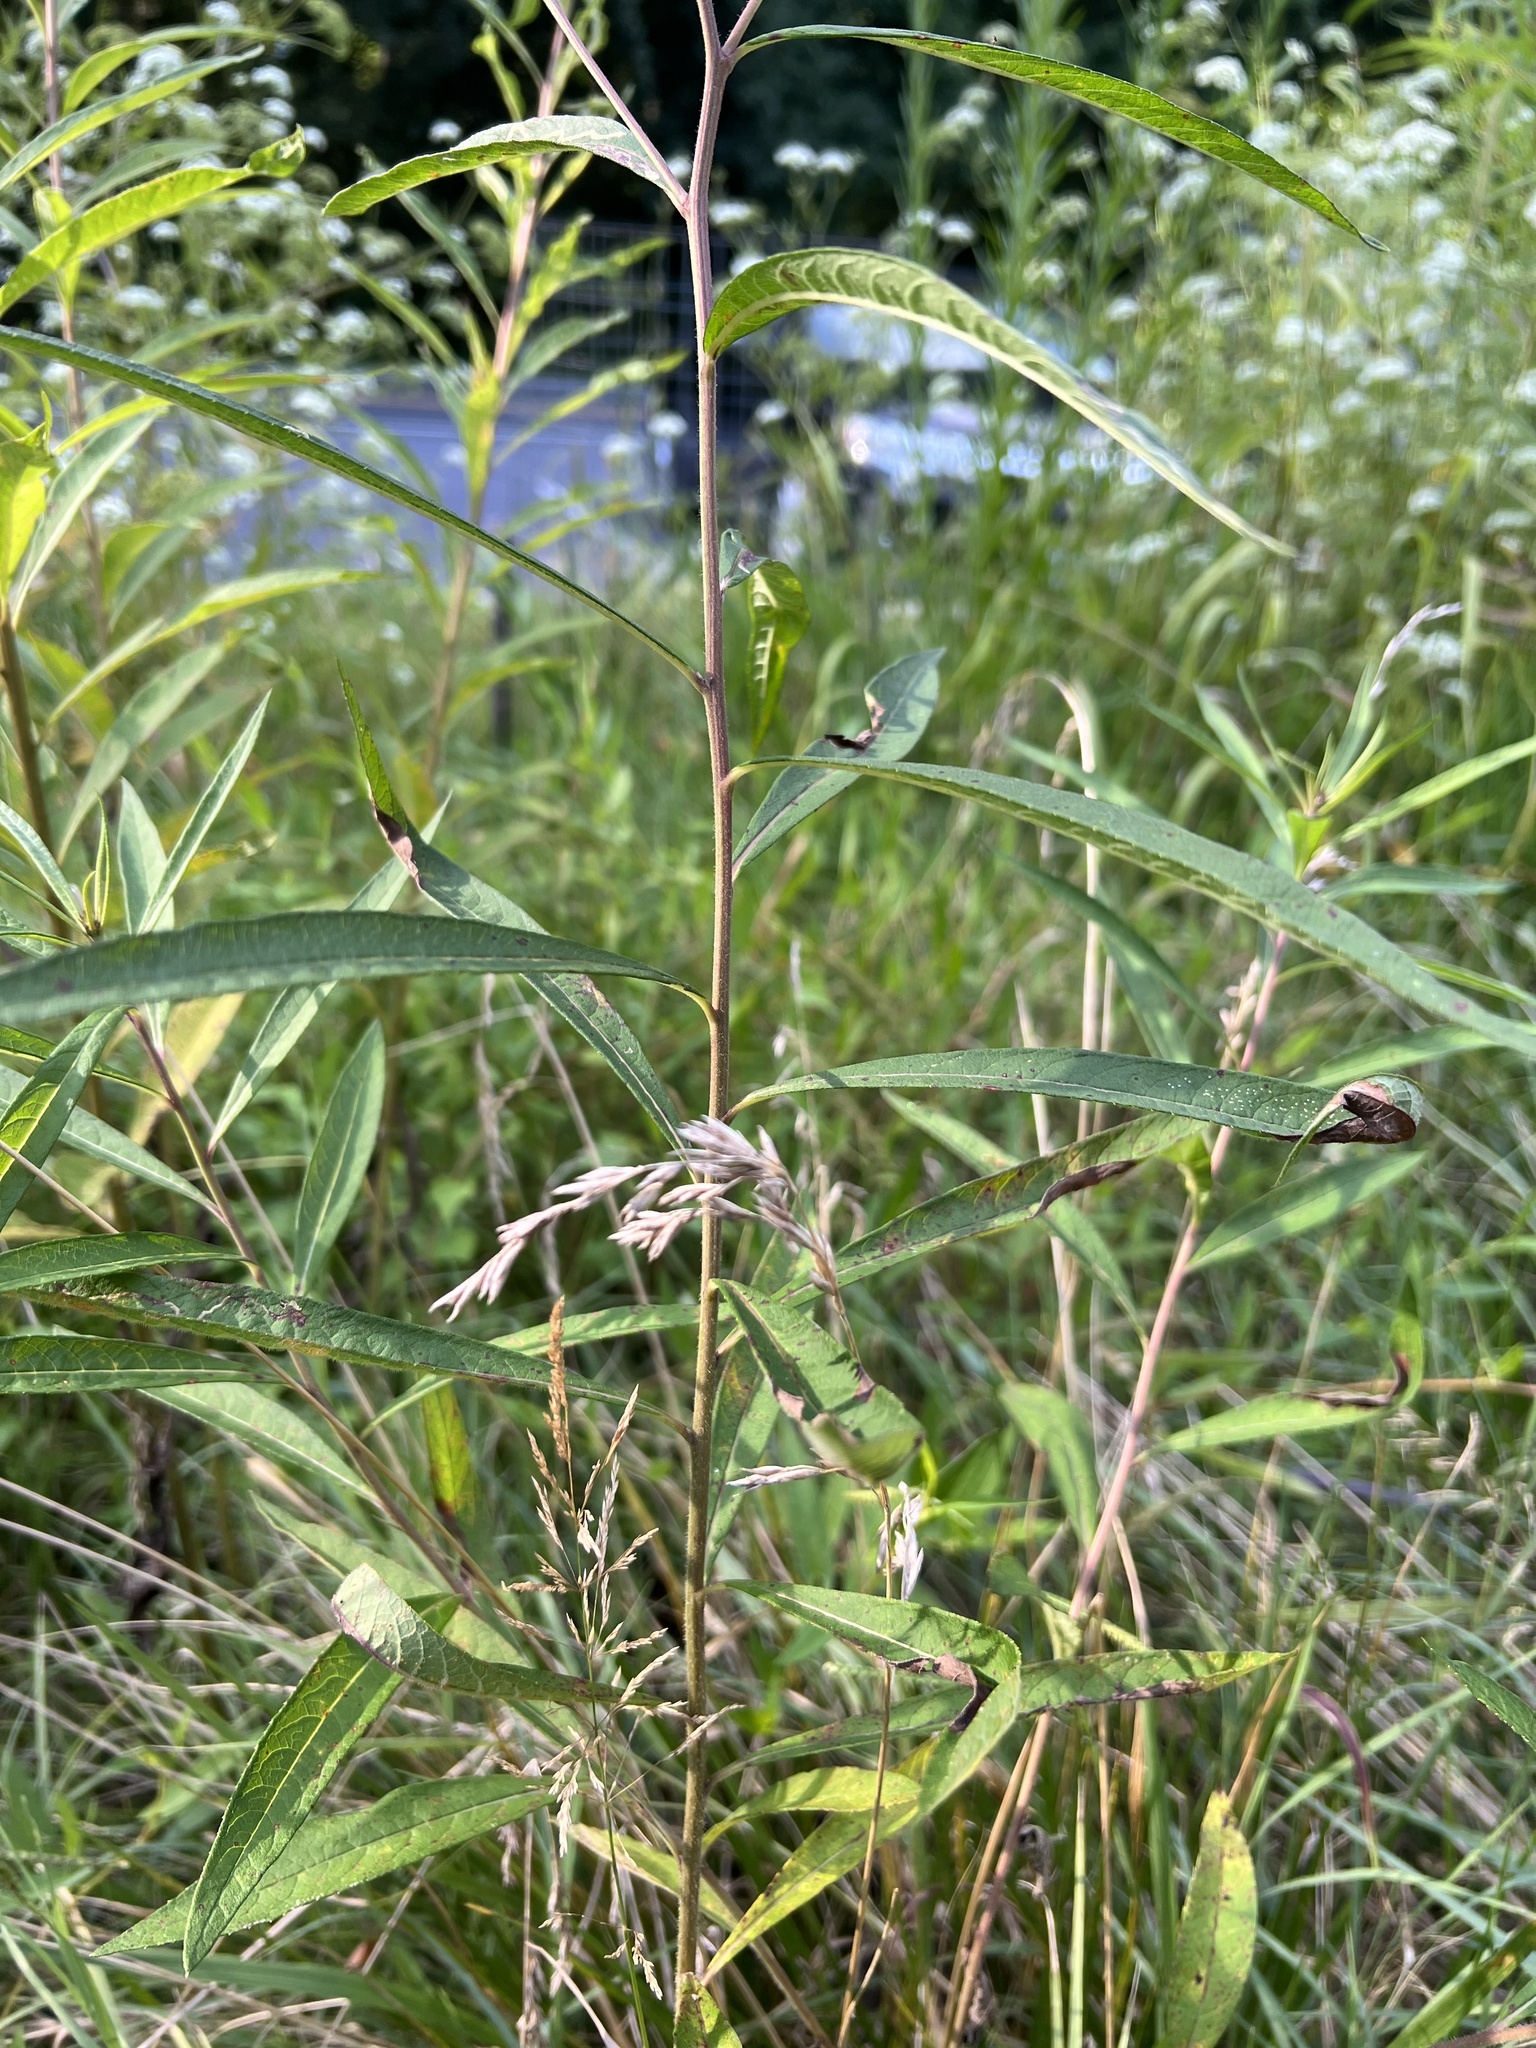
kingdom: Plantae
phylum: Tracheophyta
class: Magnoliopsida
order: Asterales
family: Asteraceae
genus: Vernonia
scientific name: Vernonia noveboracensis
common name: New york ironweed
